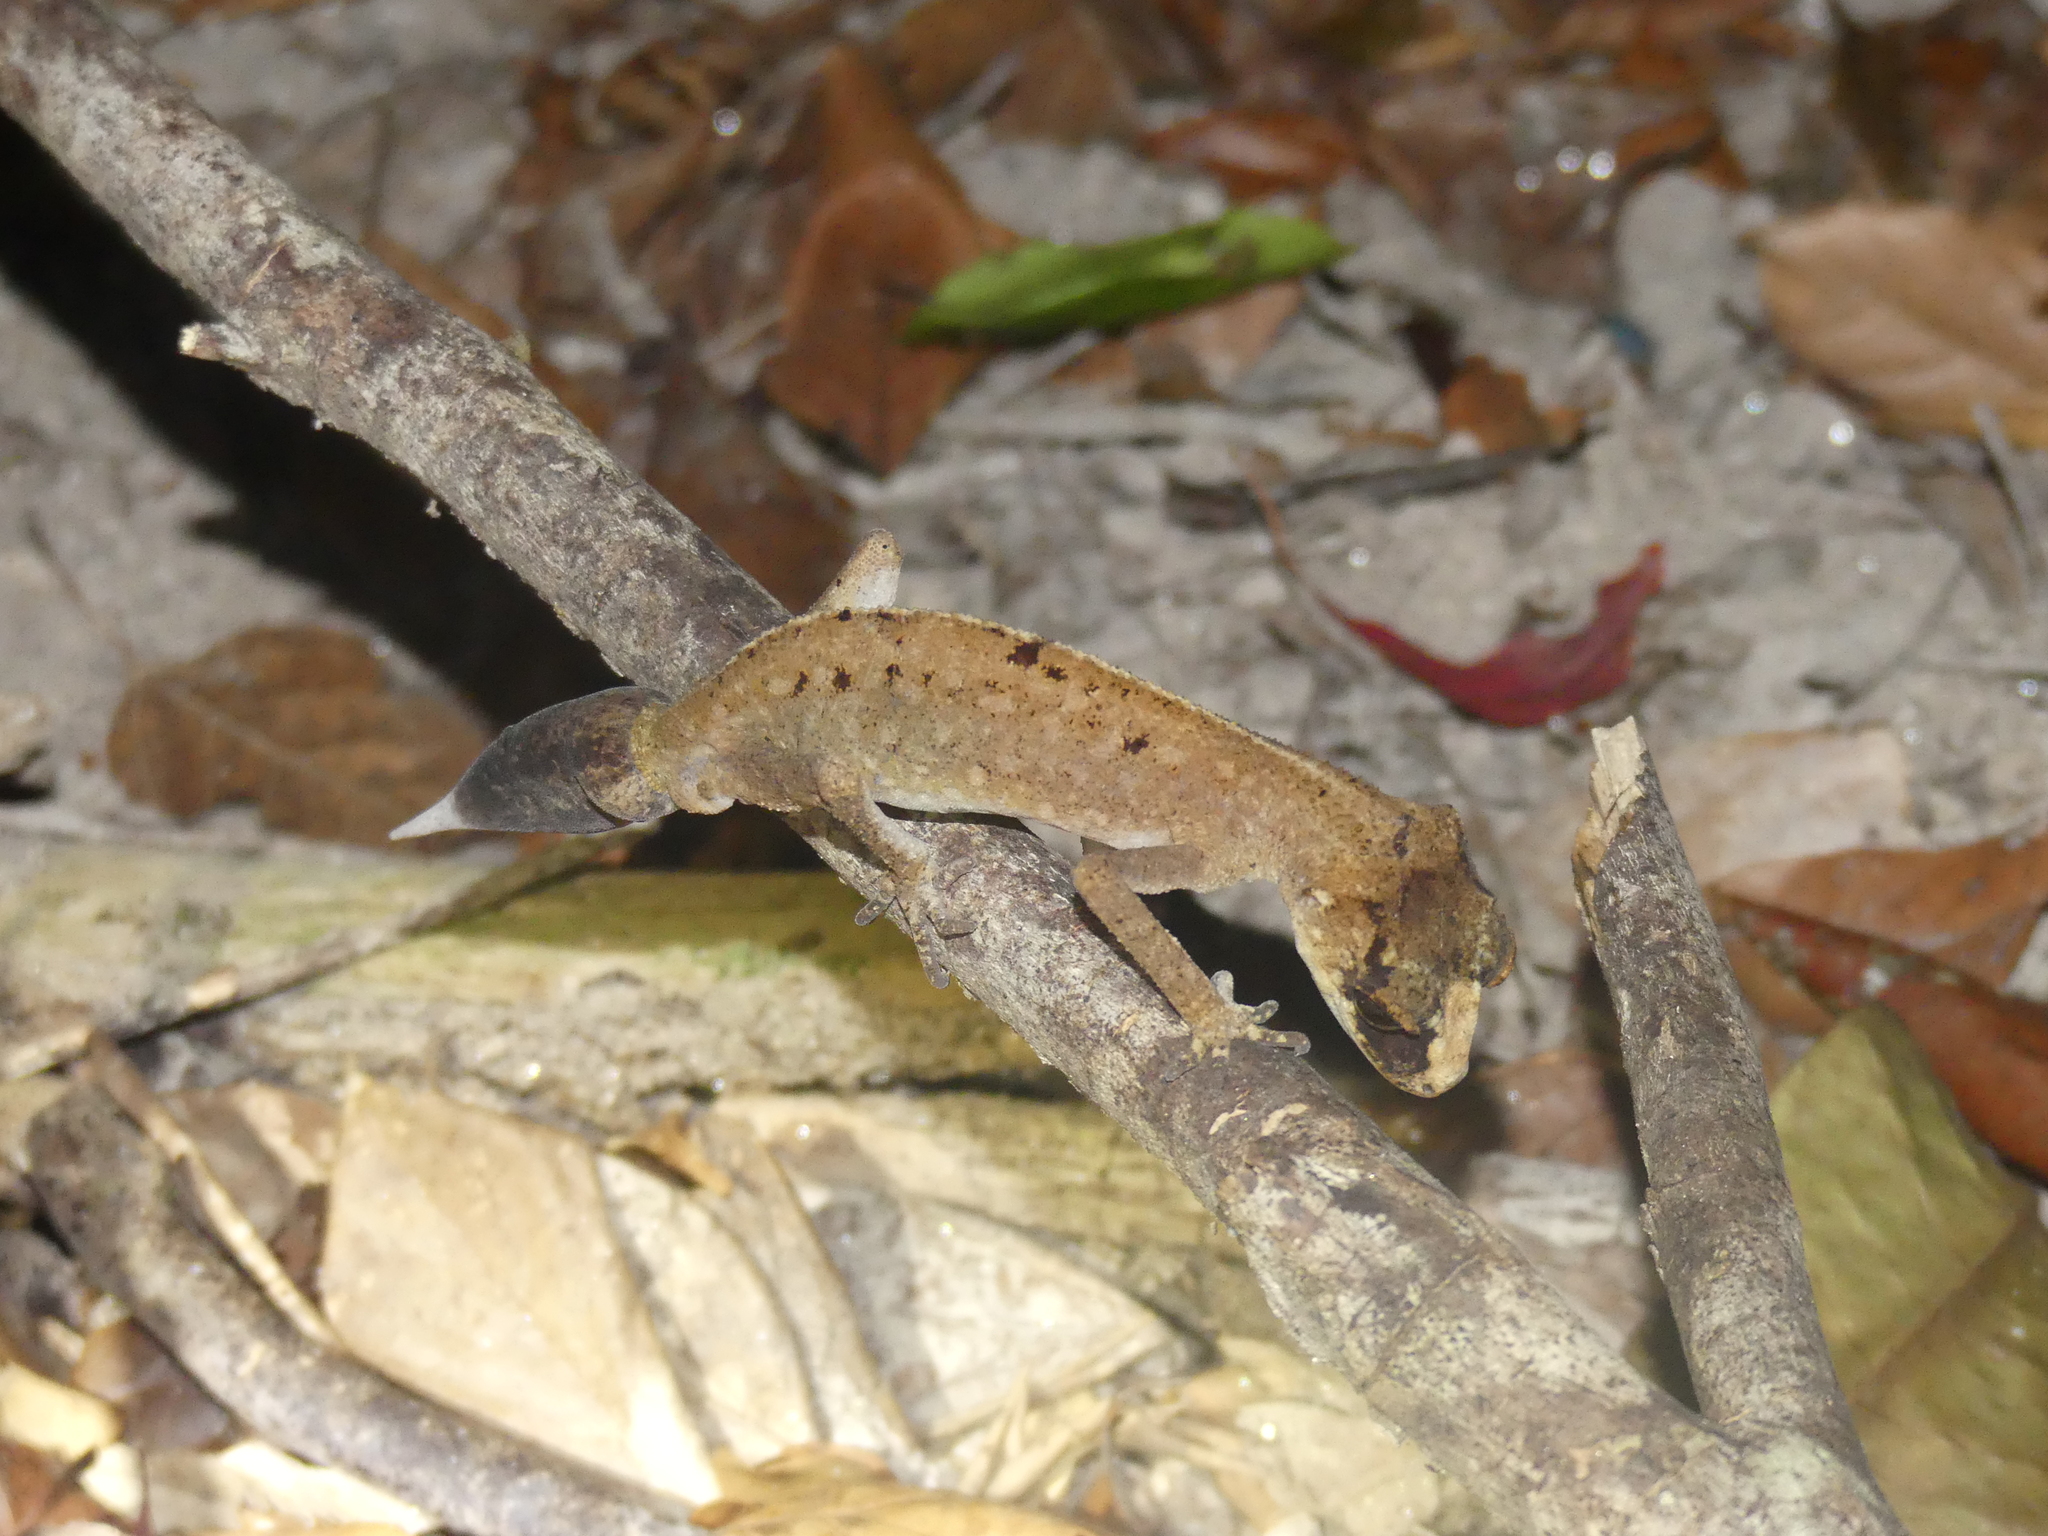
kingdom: Animalia
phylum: Chordata
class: Squamata
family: Carphodactylidae
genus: Carphodactylus
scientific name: Carphodactylus laevis
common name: Chameleon gecko
